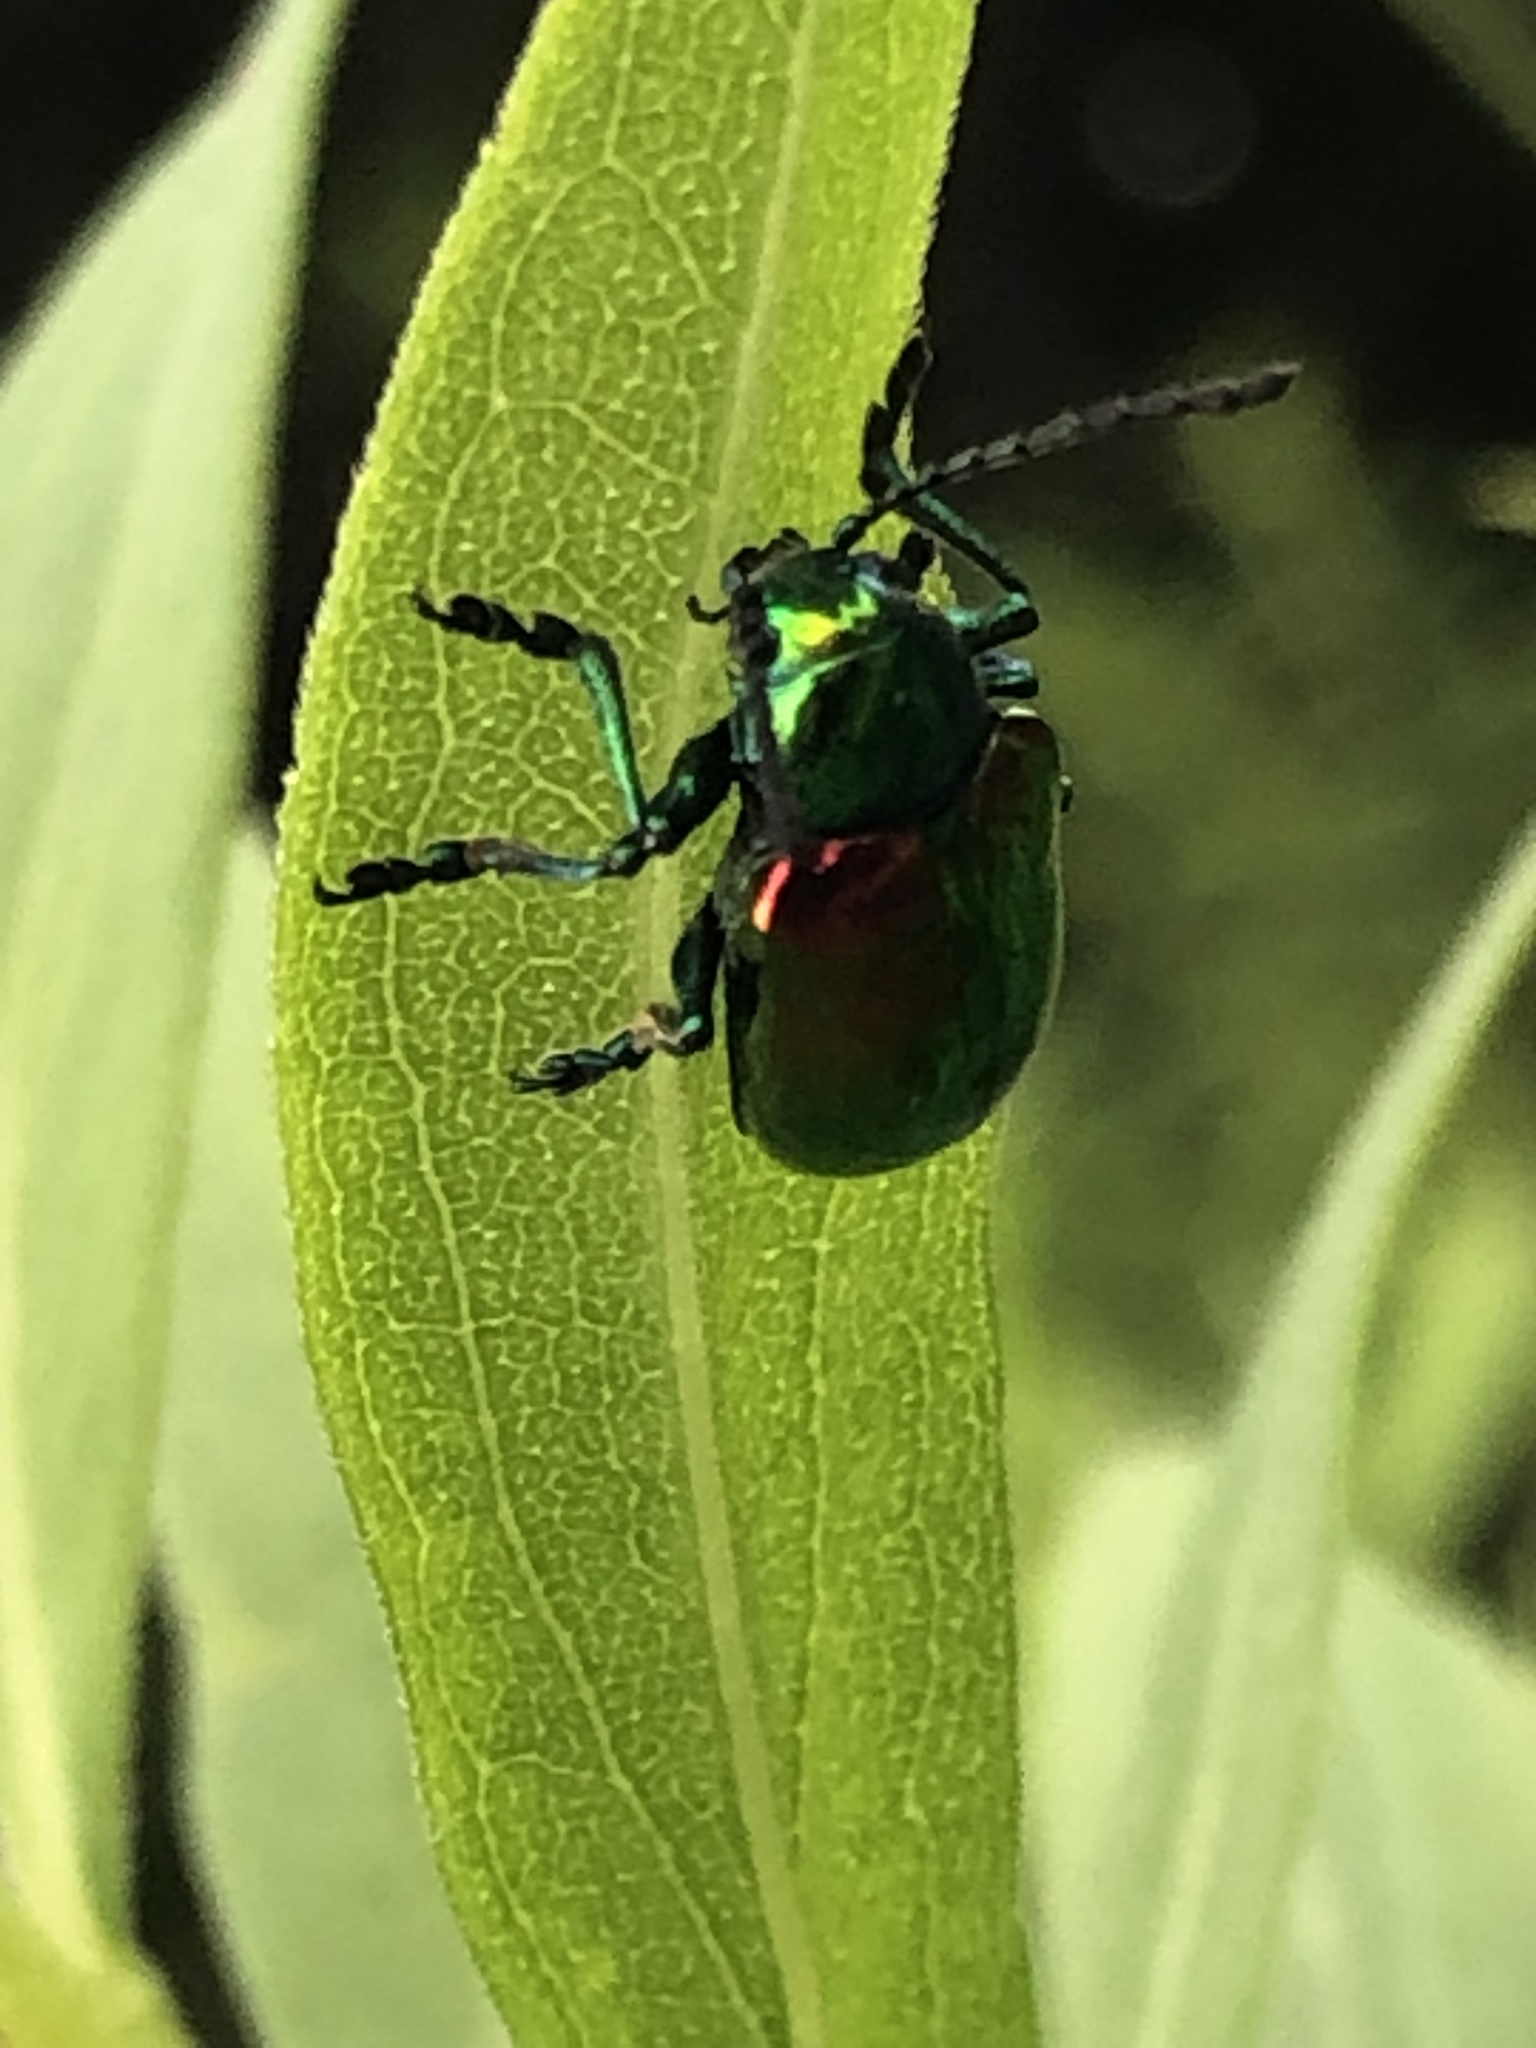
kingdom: Animalia
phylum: Arthropoda
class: Insecta
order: Coleoptera
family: Chrysomelidae
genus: Chrysochus
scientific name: Chrysochus auratus
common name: Dogbane leaf beetle
